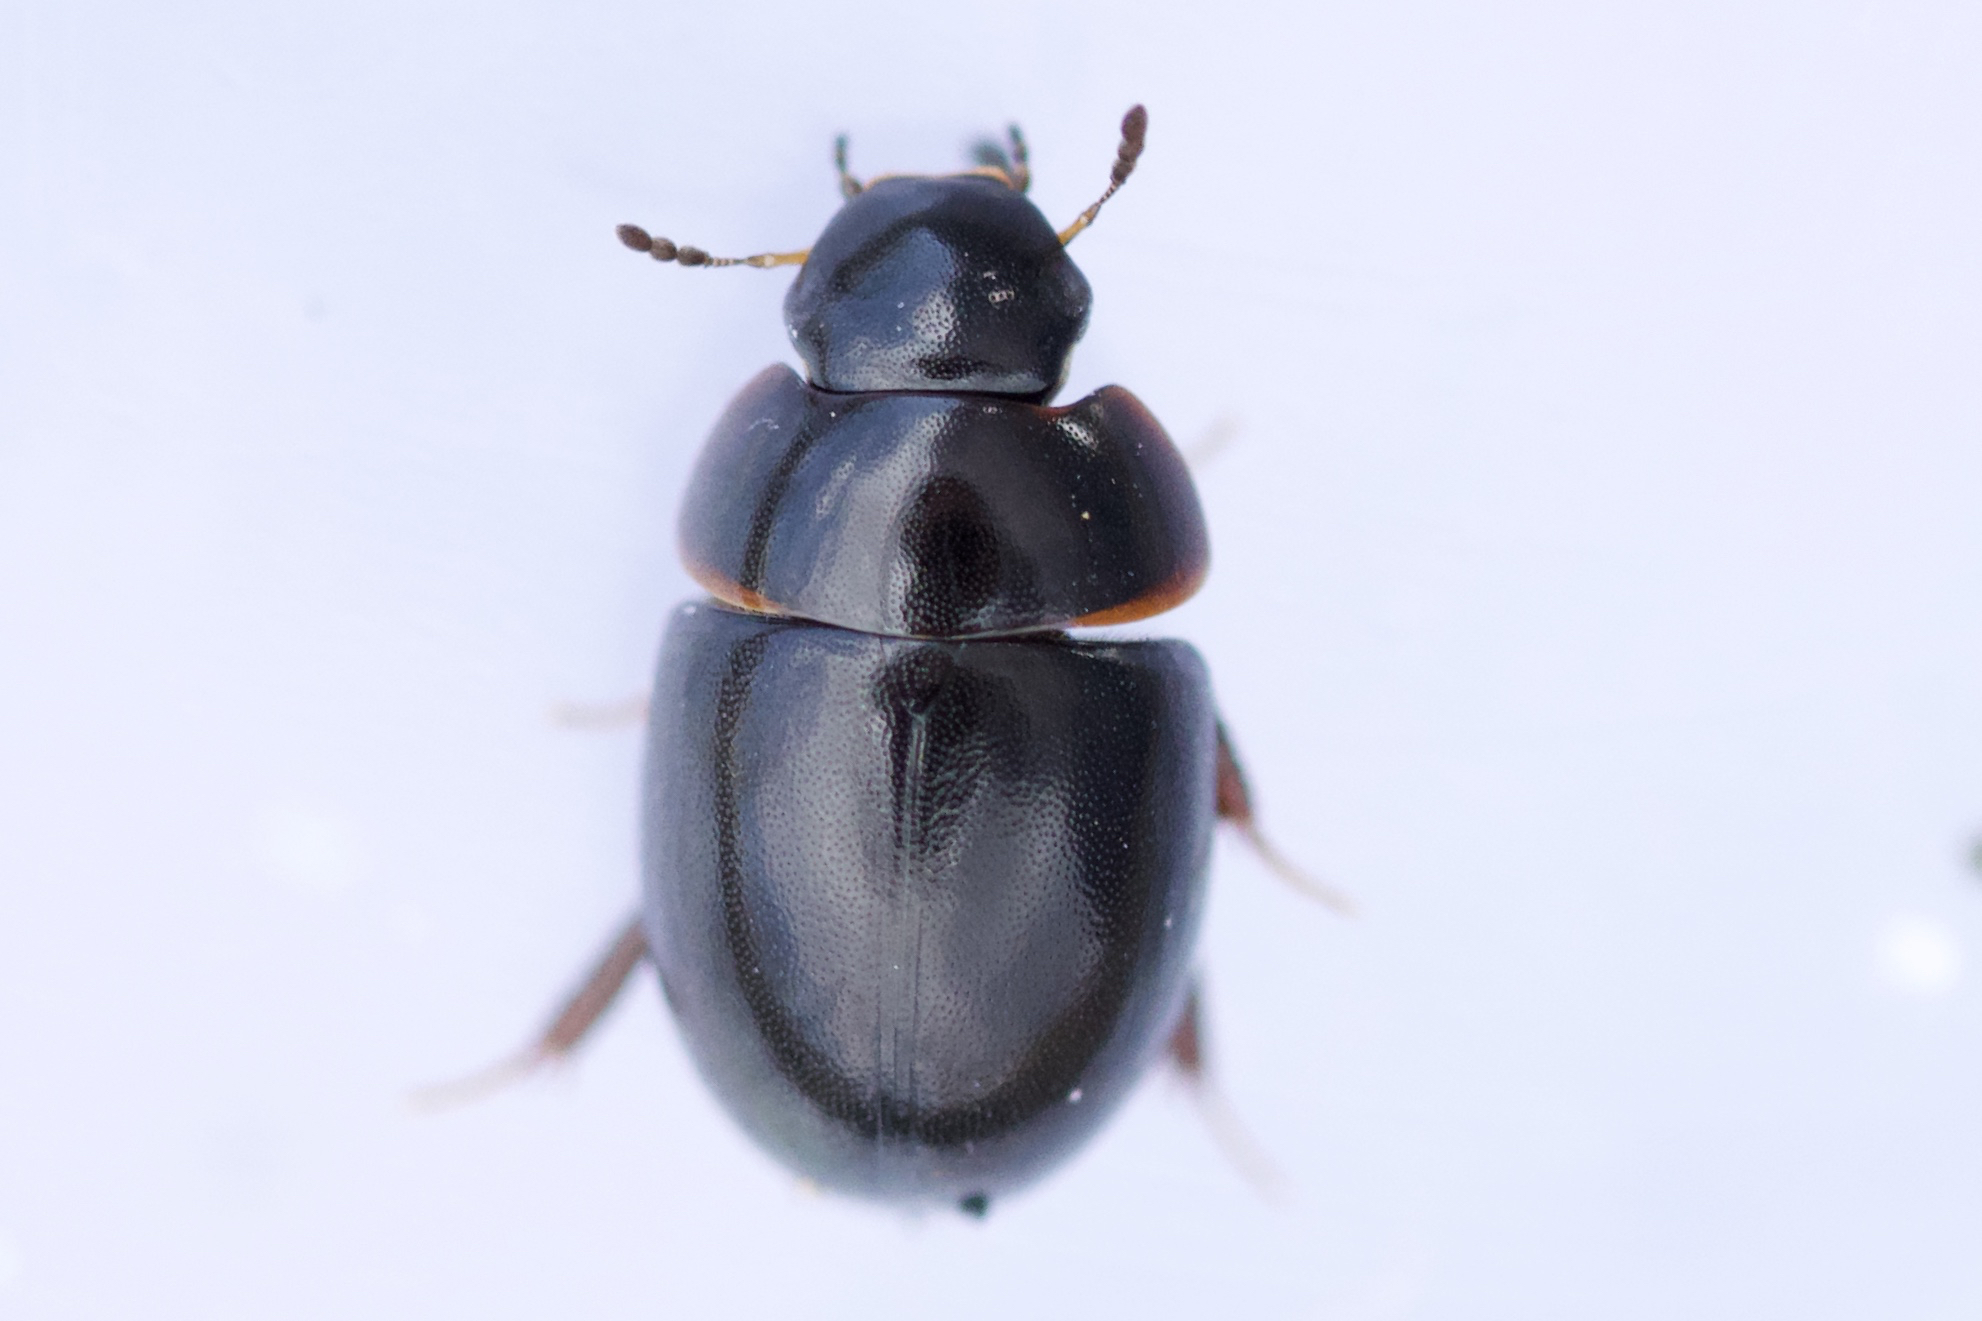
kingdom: Animalia
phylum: Arthropoda
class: Insecta
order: Coleoptera
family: Hydrophilidae
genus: Coelostoma
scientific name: Coelostoma orbiculare
